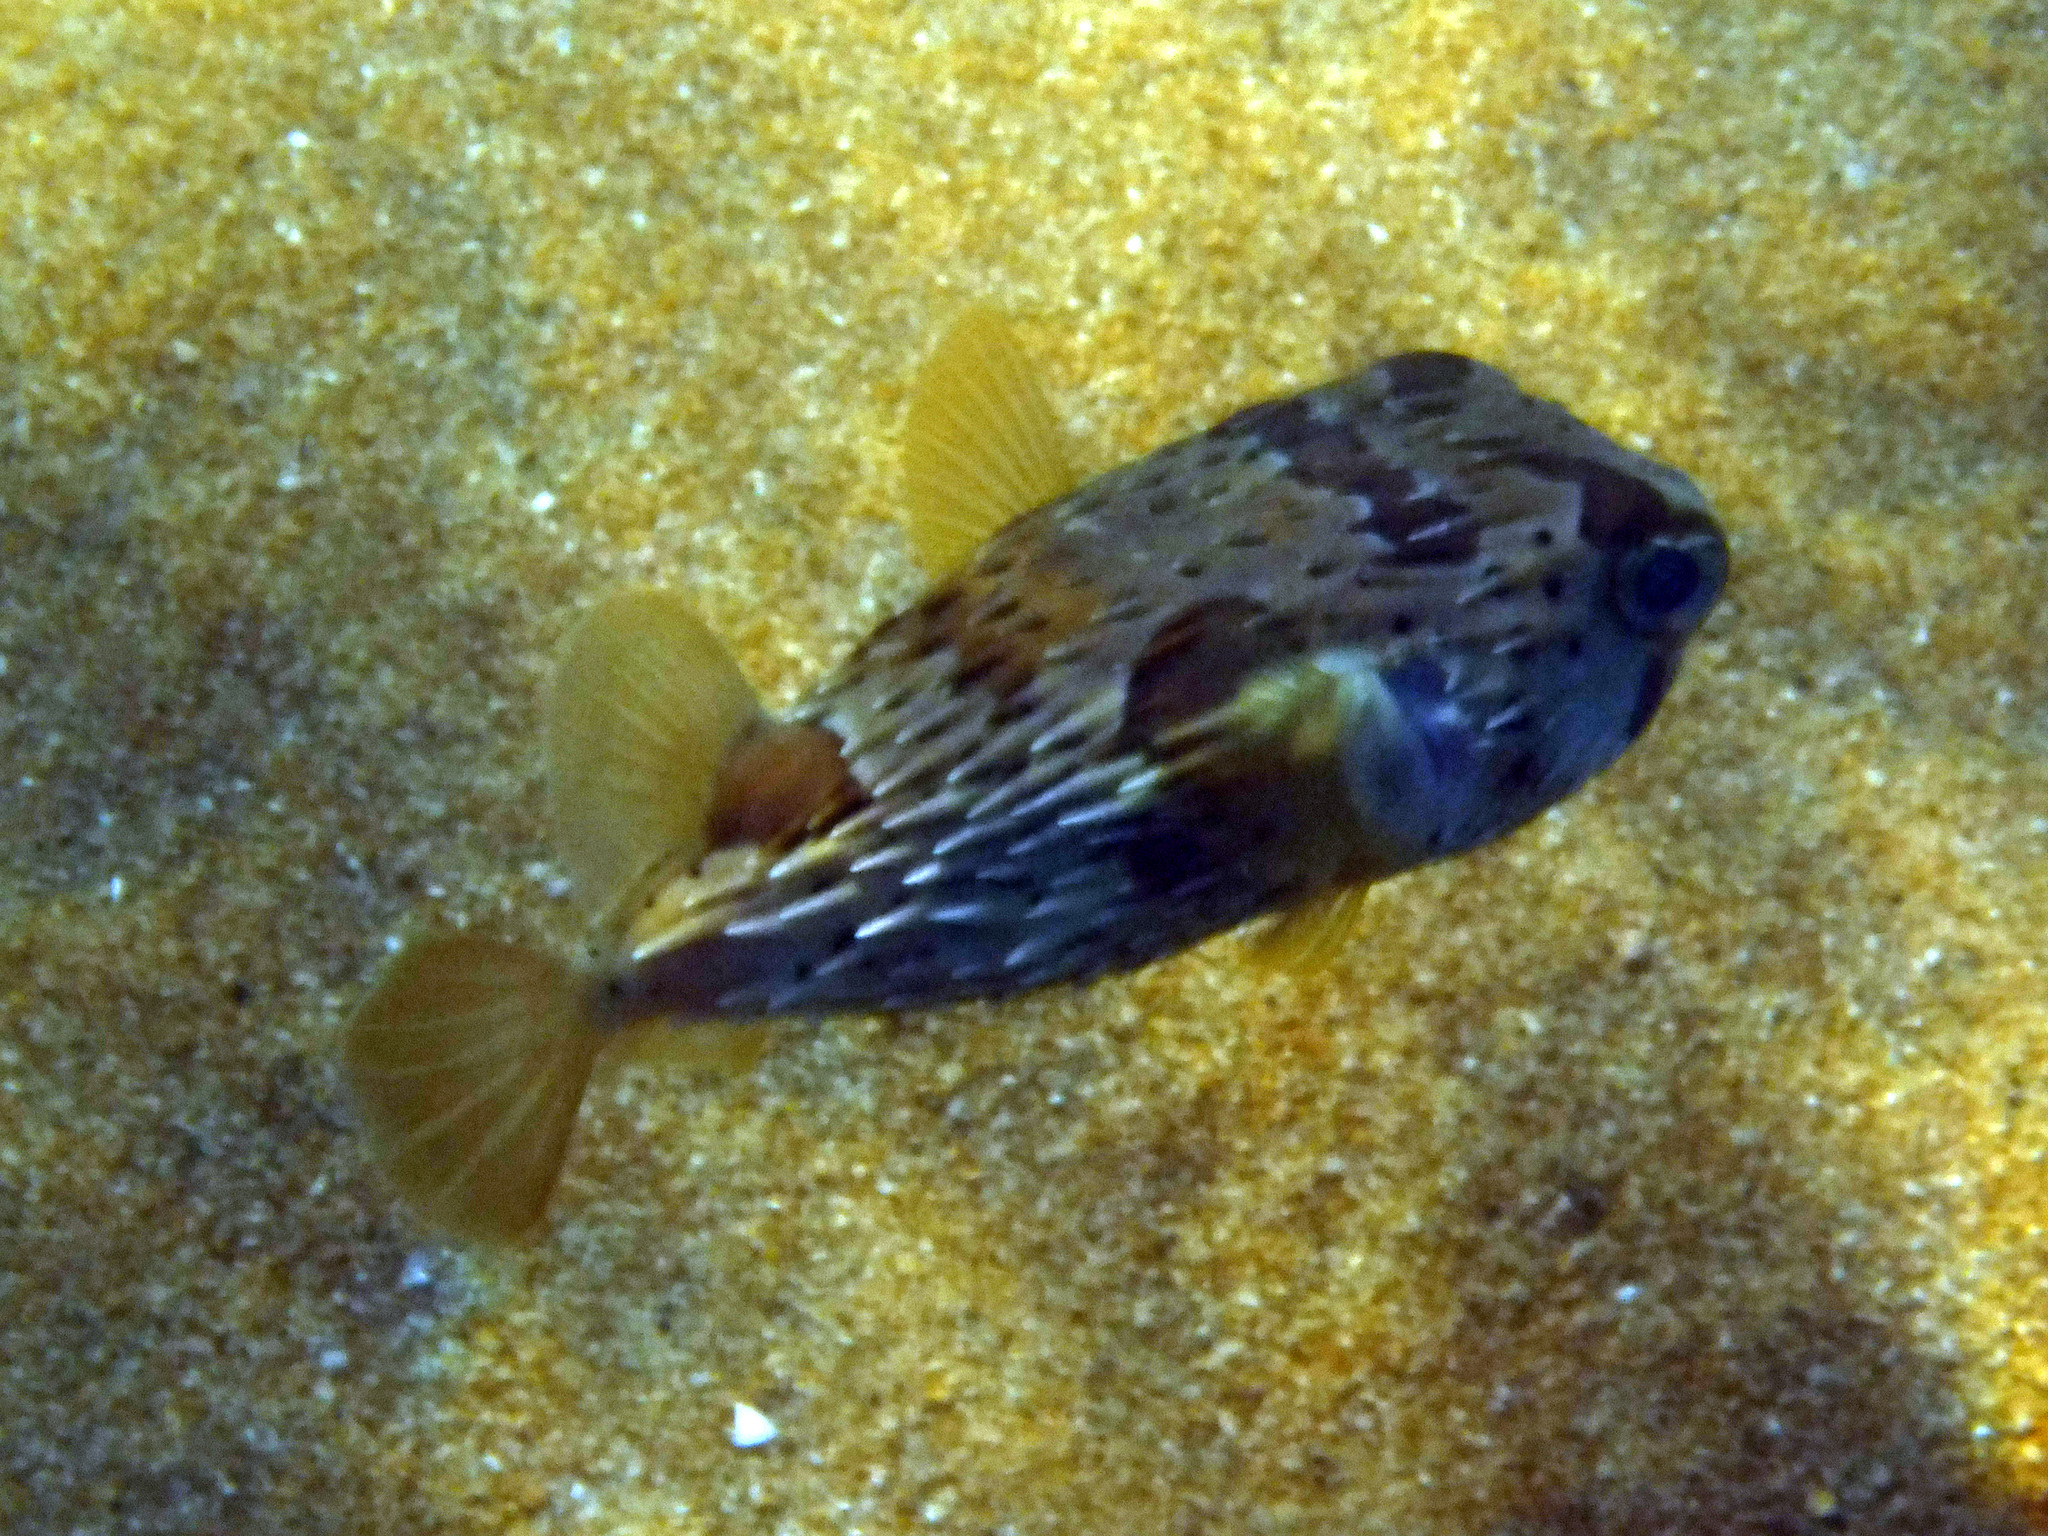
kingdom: Animalia
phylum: Chordata
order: Tetraodontiformes
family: Diodontidae
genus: Diodon
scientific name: Diodon holocanthus
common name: Balloonfish
